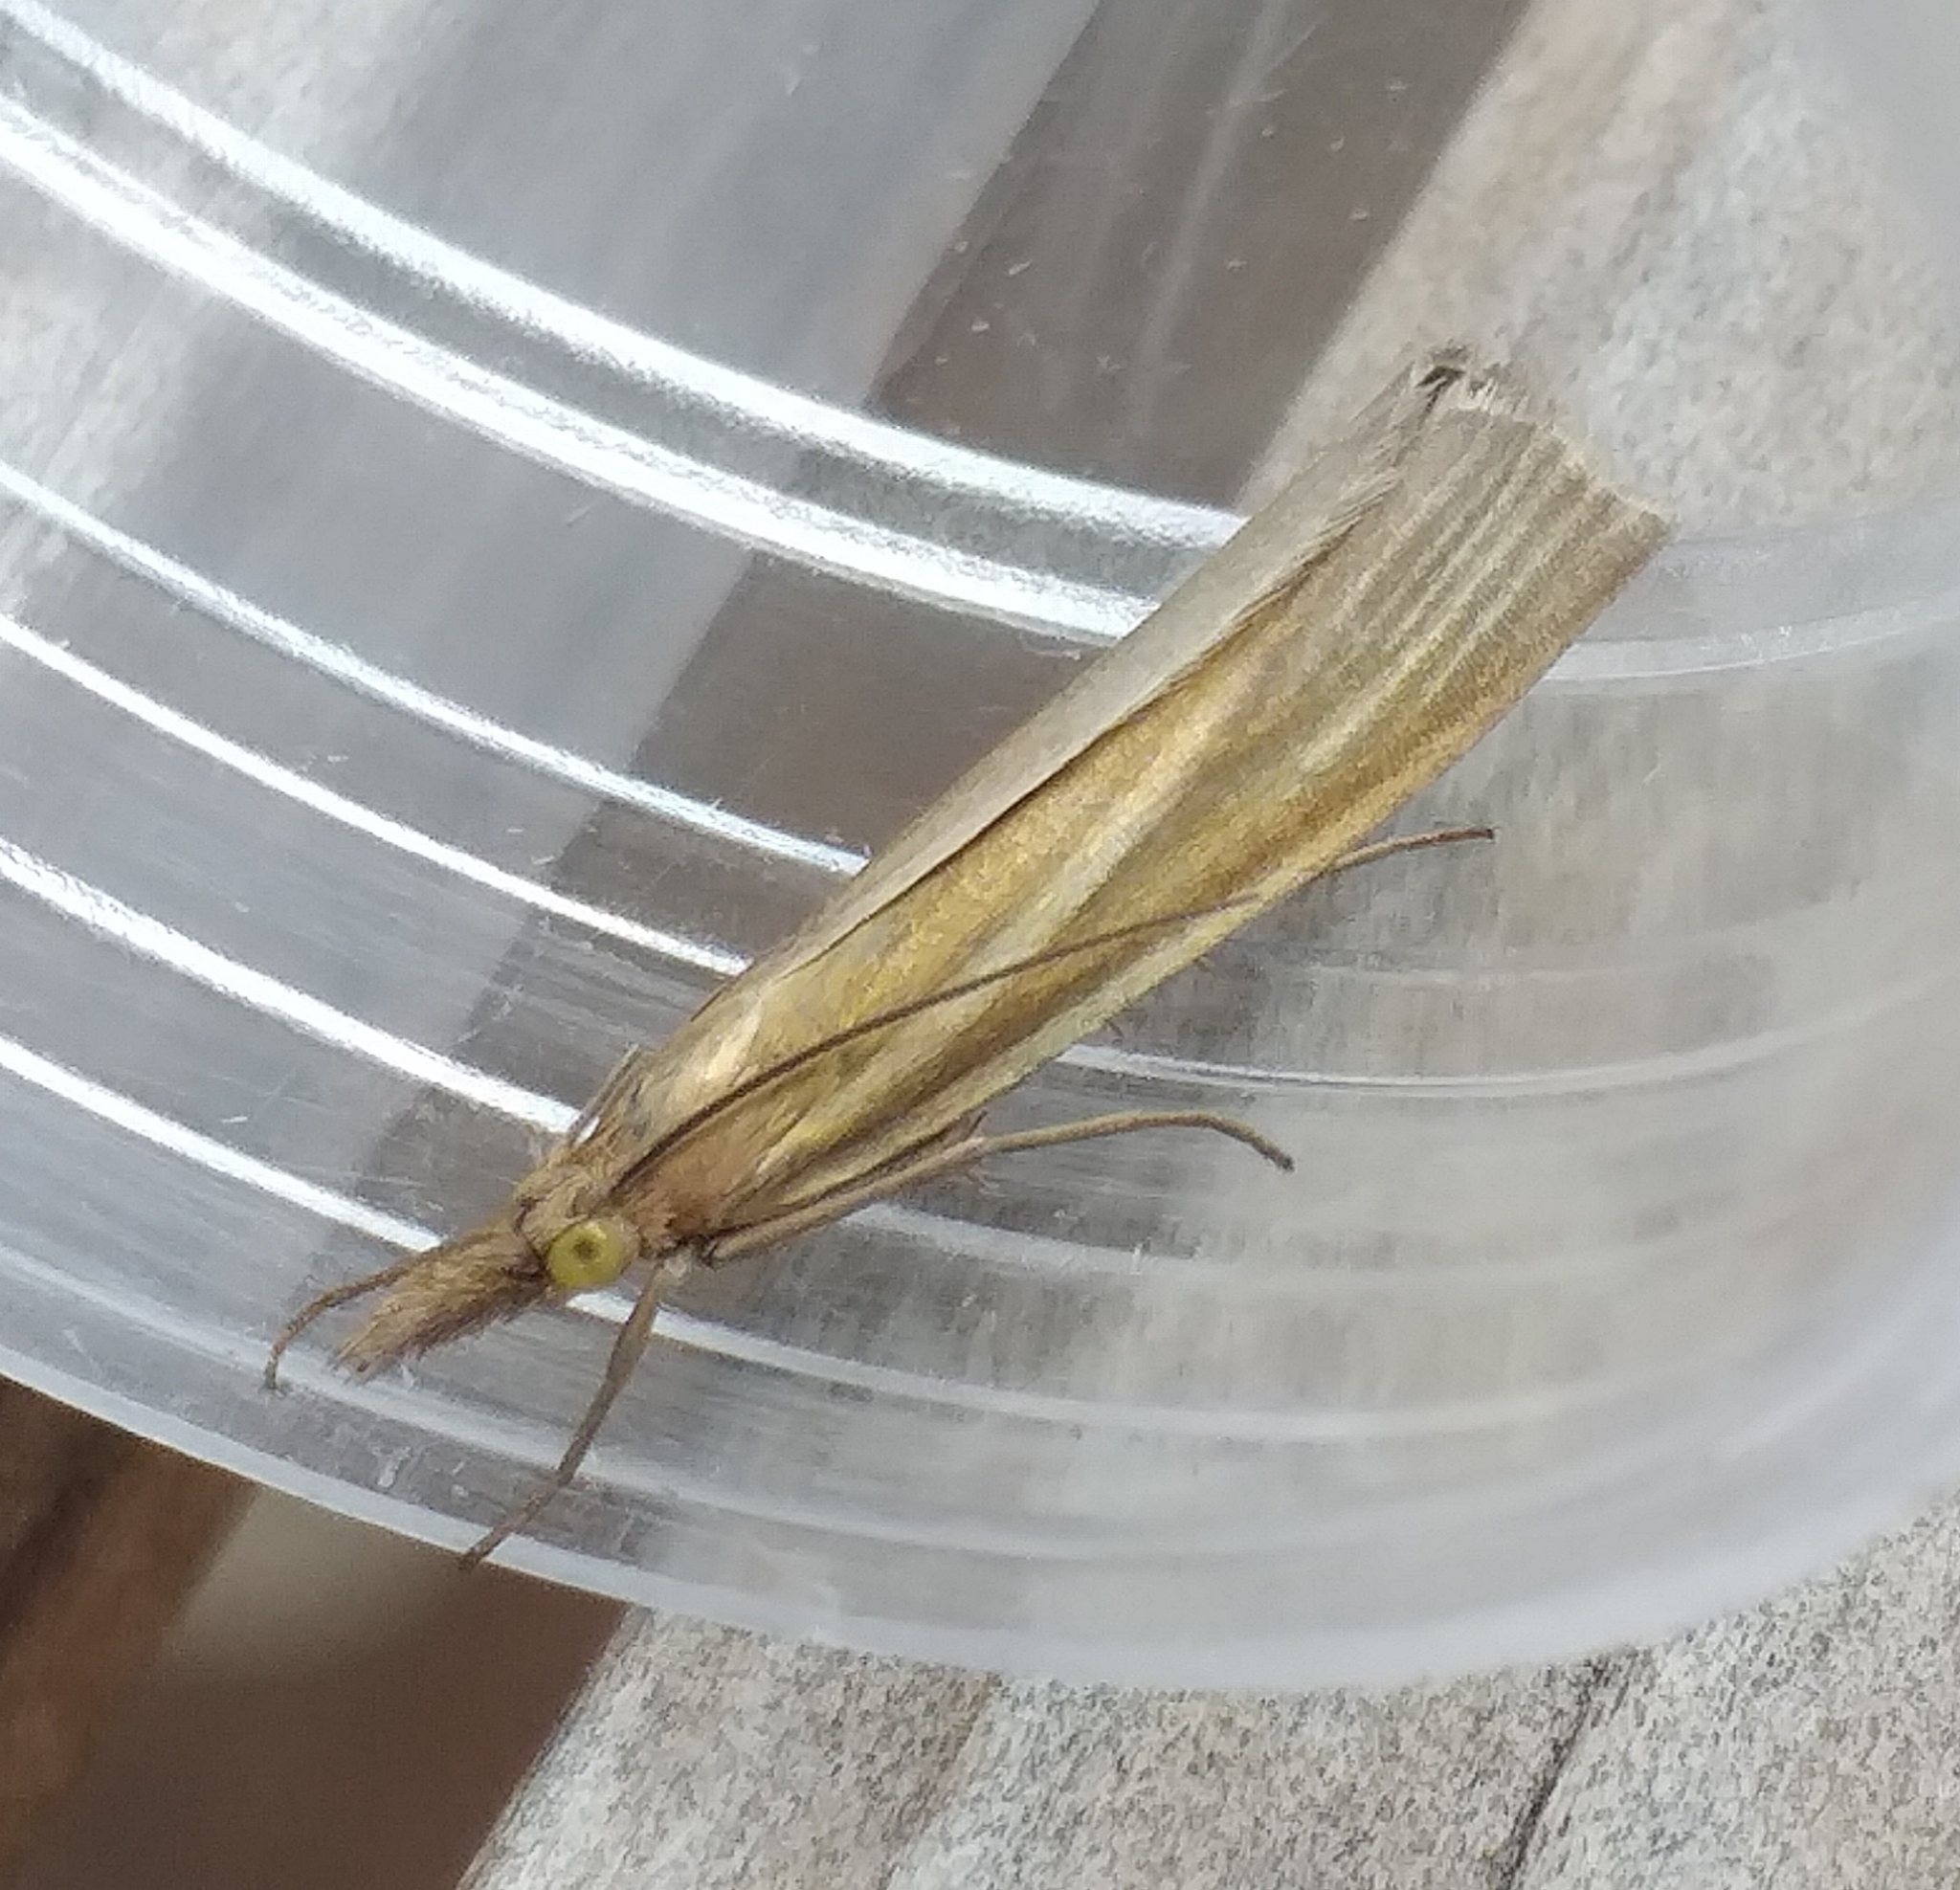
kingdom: Animalia
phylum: Arthropoda
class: Insecta
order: Lepidoptera
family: Crambidae
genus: Crambus
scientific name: Crambus perlellus
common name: Yellow satin veneer
